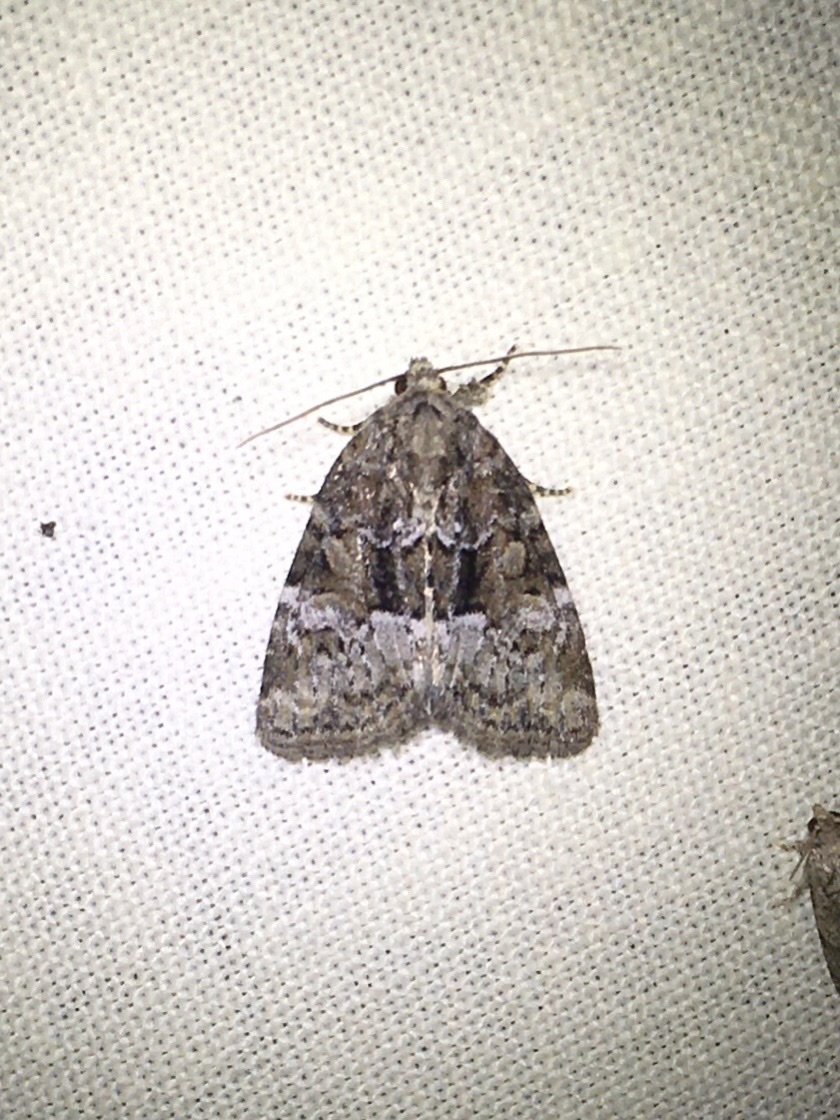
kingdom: Animalia
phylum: Arthropoda
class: Insecta
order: Lepidoptera
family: Noctuidae
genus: Neoligia
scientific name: Neoligia subjuncta
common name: Connected brocade
